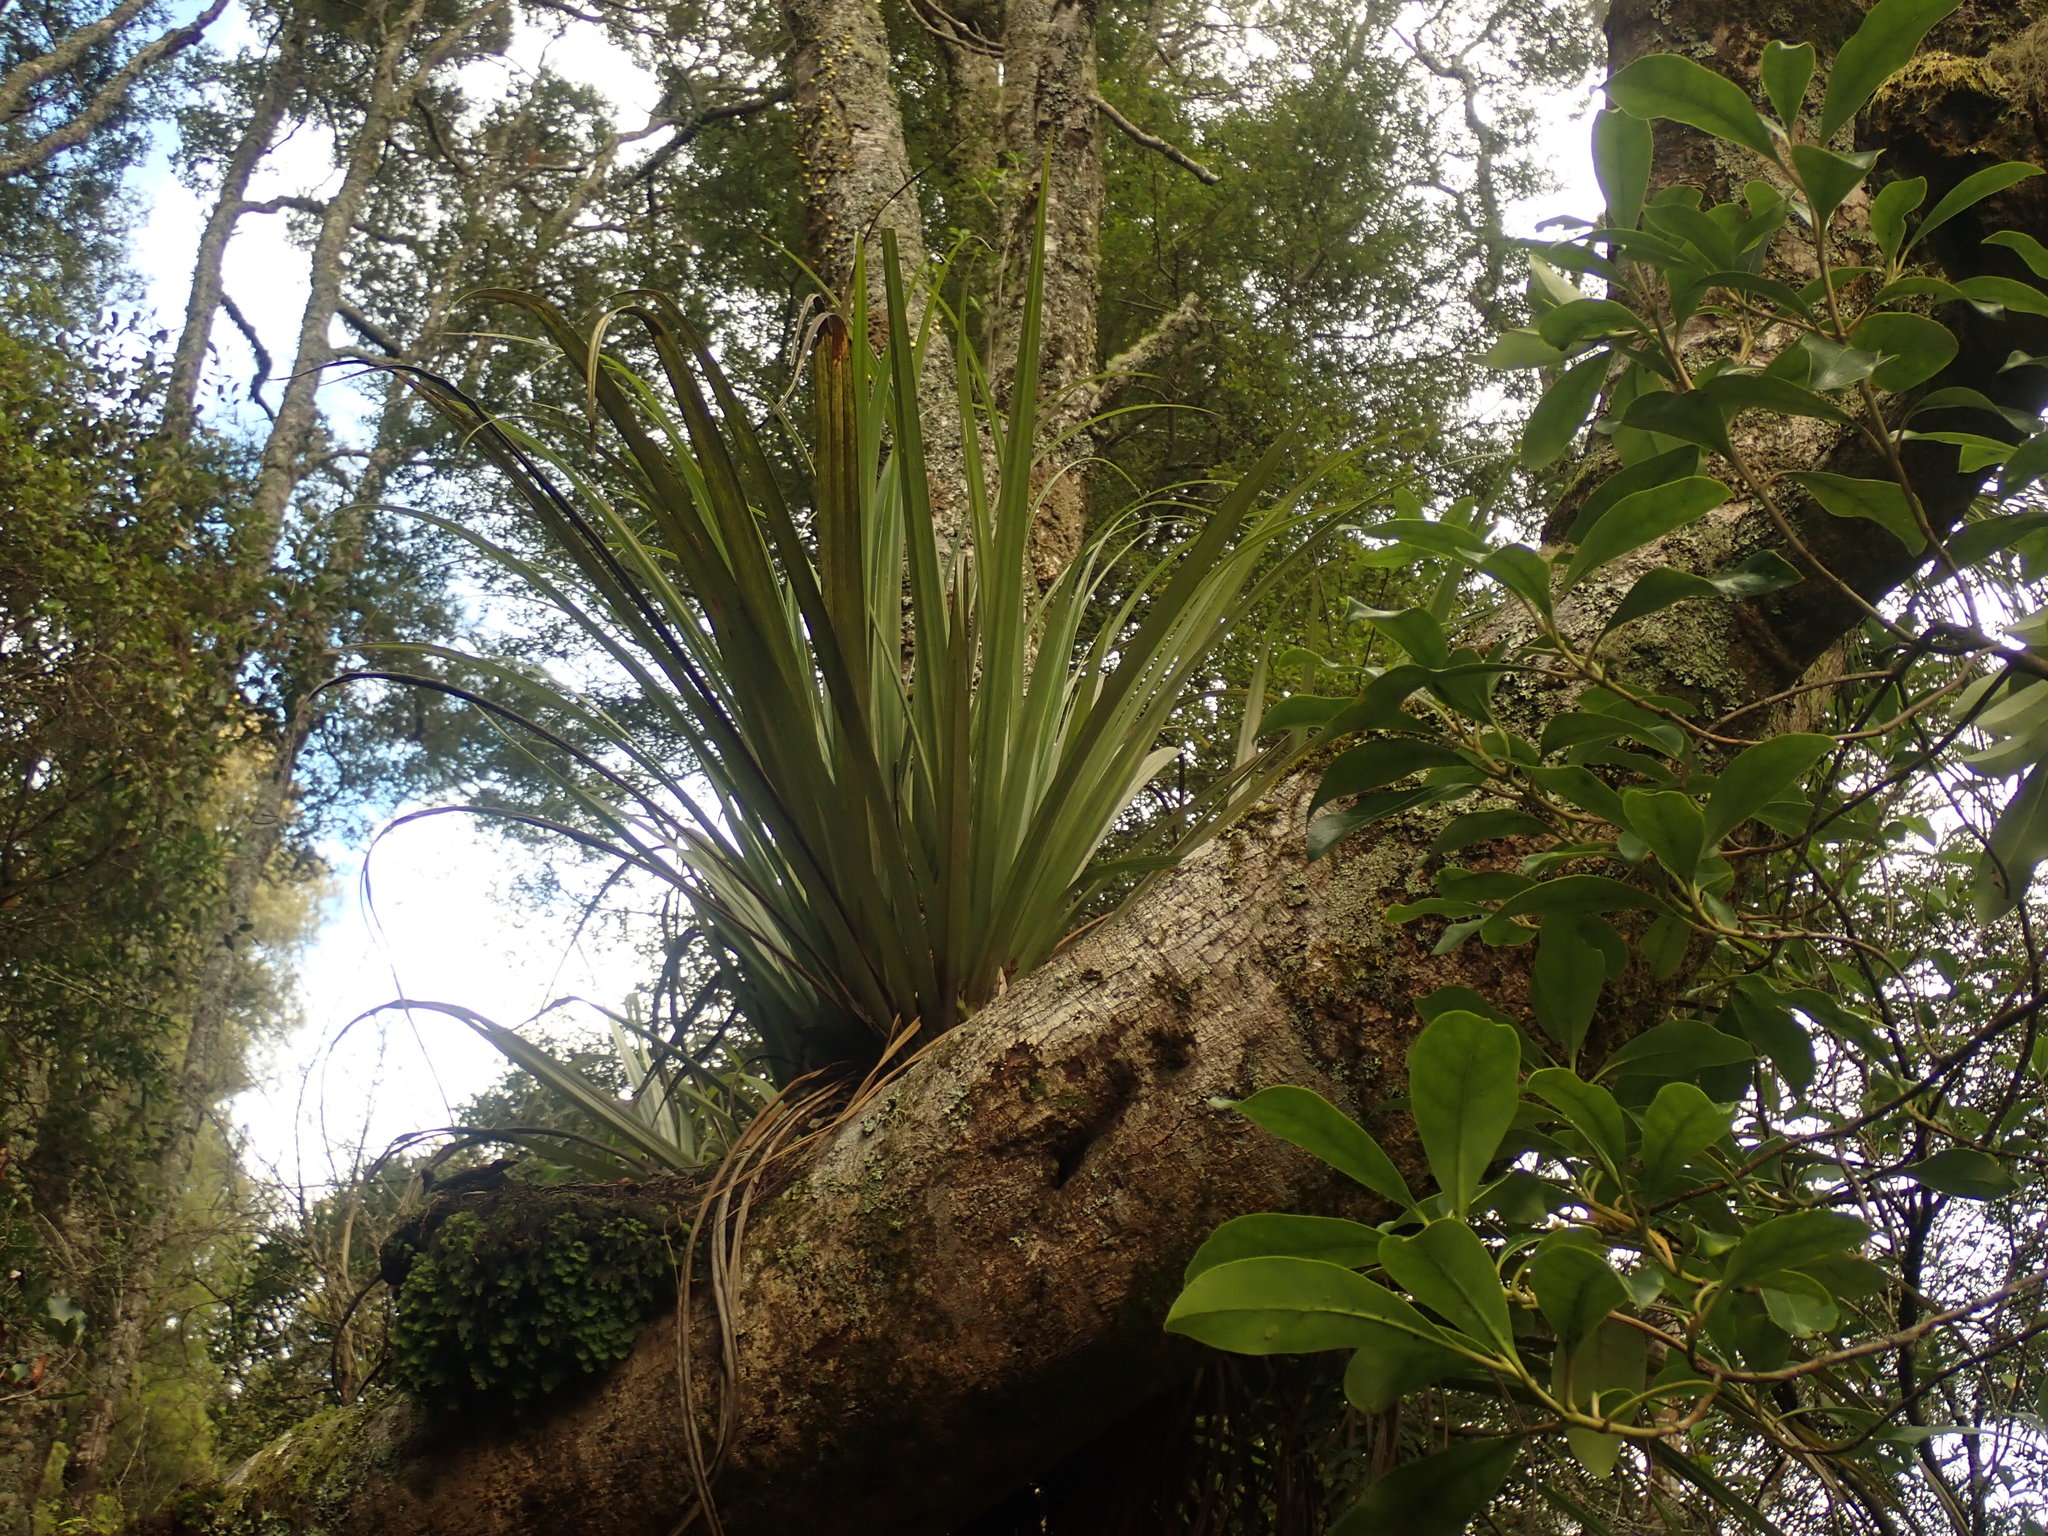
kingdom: Plantae
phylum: Tracheophyta
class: Liliopsida
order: Asparagales
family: Asteliaceae
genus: Astelia
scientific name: Astelia hastata
